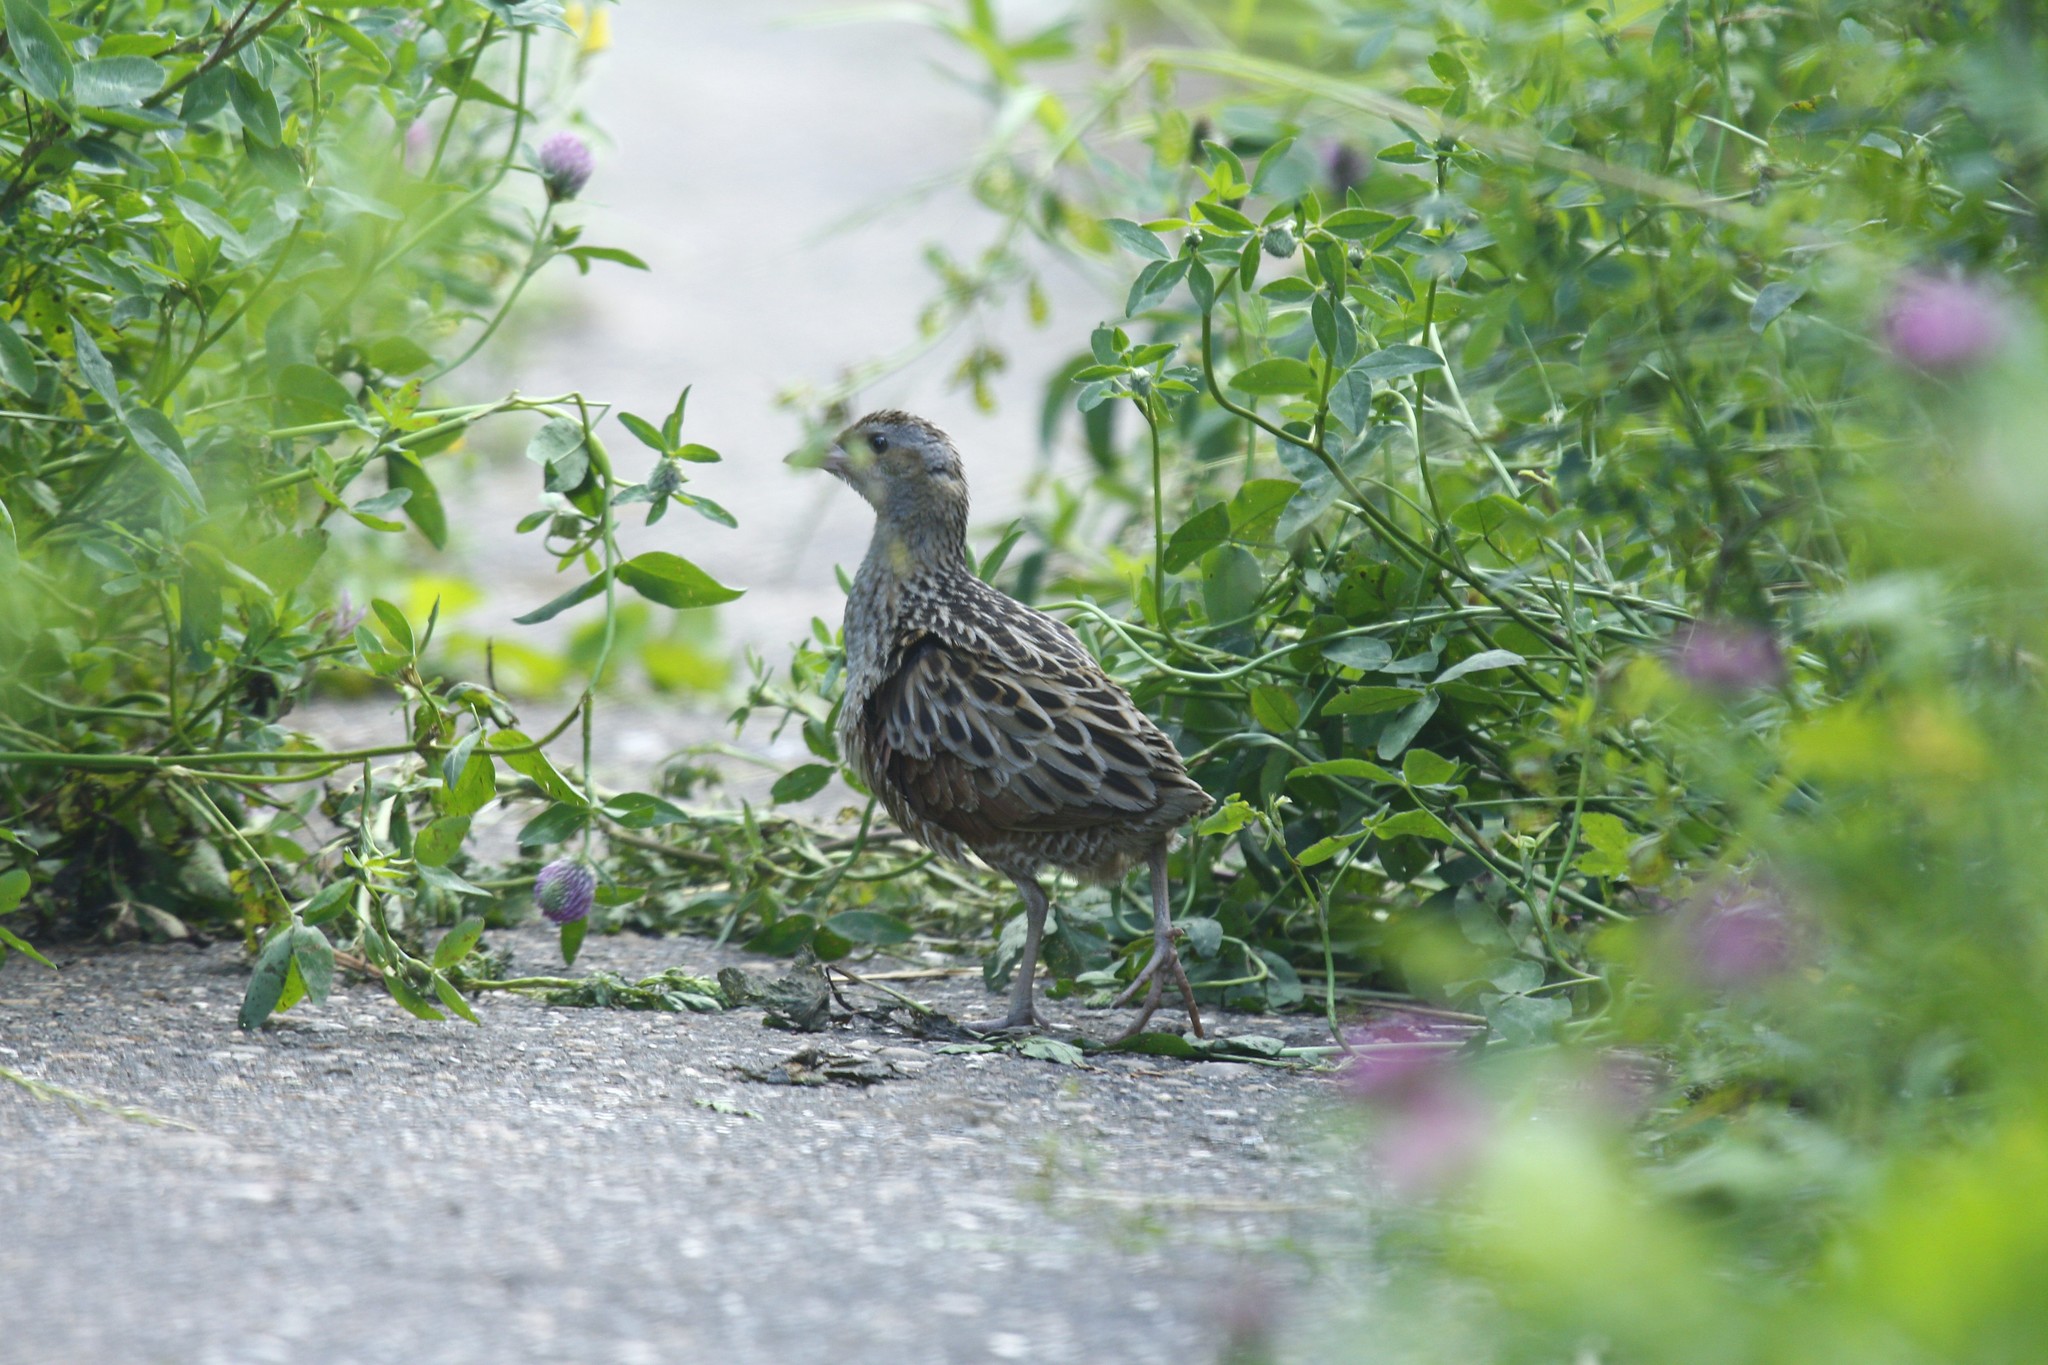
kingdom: Animalia
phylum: Chordata
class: Aves
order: Gruiformes
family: Rallidae
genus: Crex
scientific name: Crex crex
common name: Corn crake
